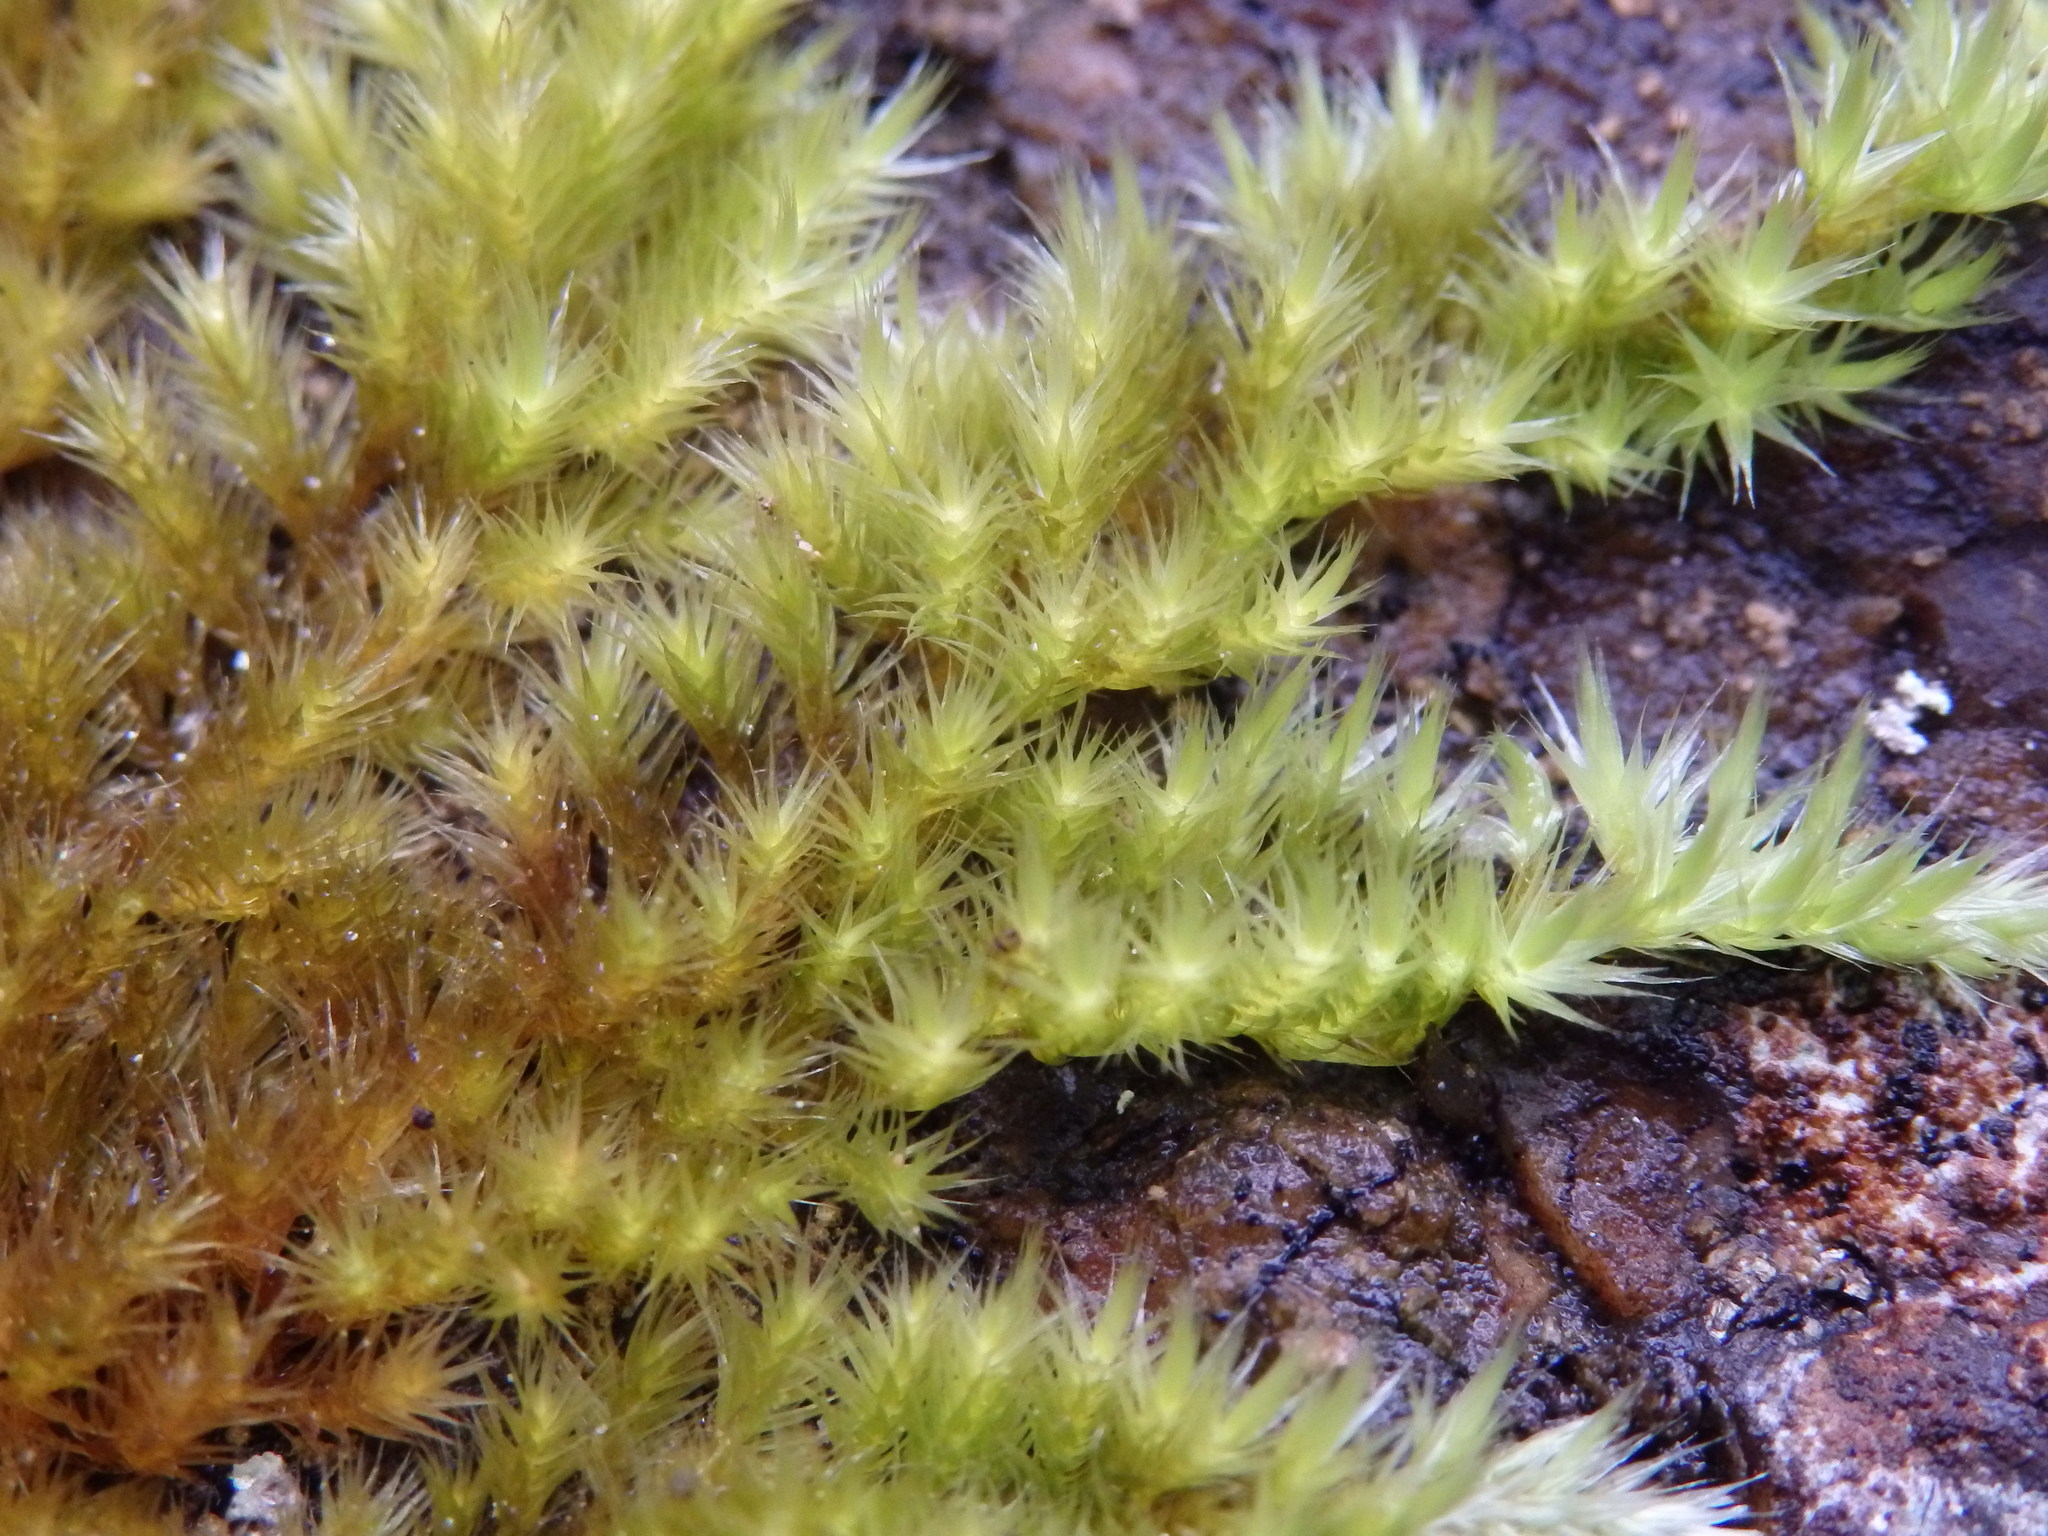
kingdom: Plantae
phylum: Bryophyta
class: Bryopsida
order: Hypnales
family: Brachytheciaceae
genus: Homalothecium
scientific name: Homalothecium sericeum
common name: Silky wall feather-moss
